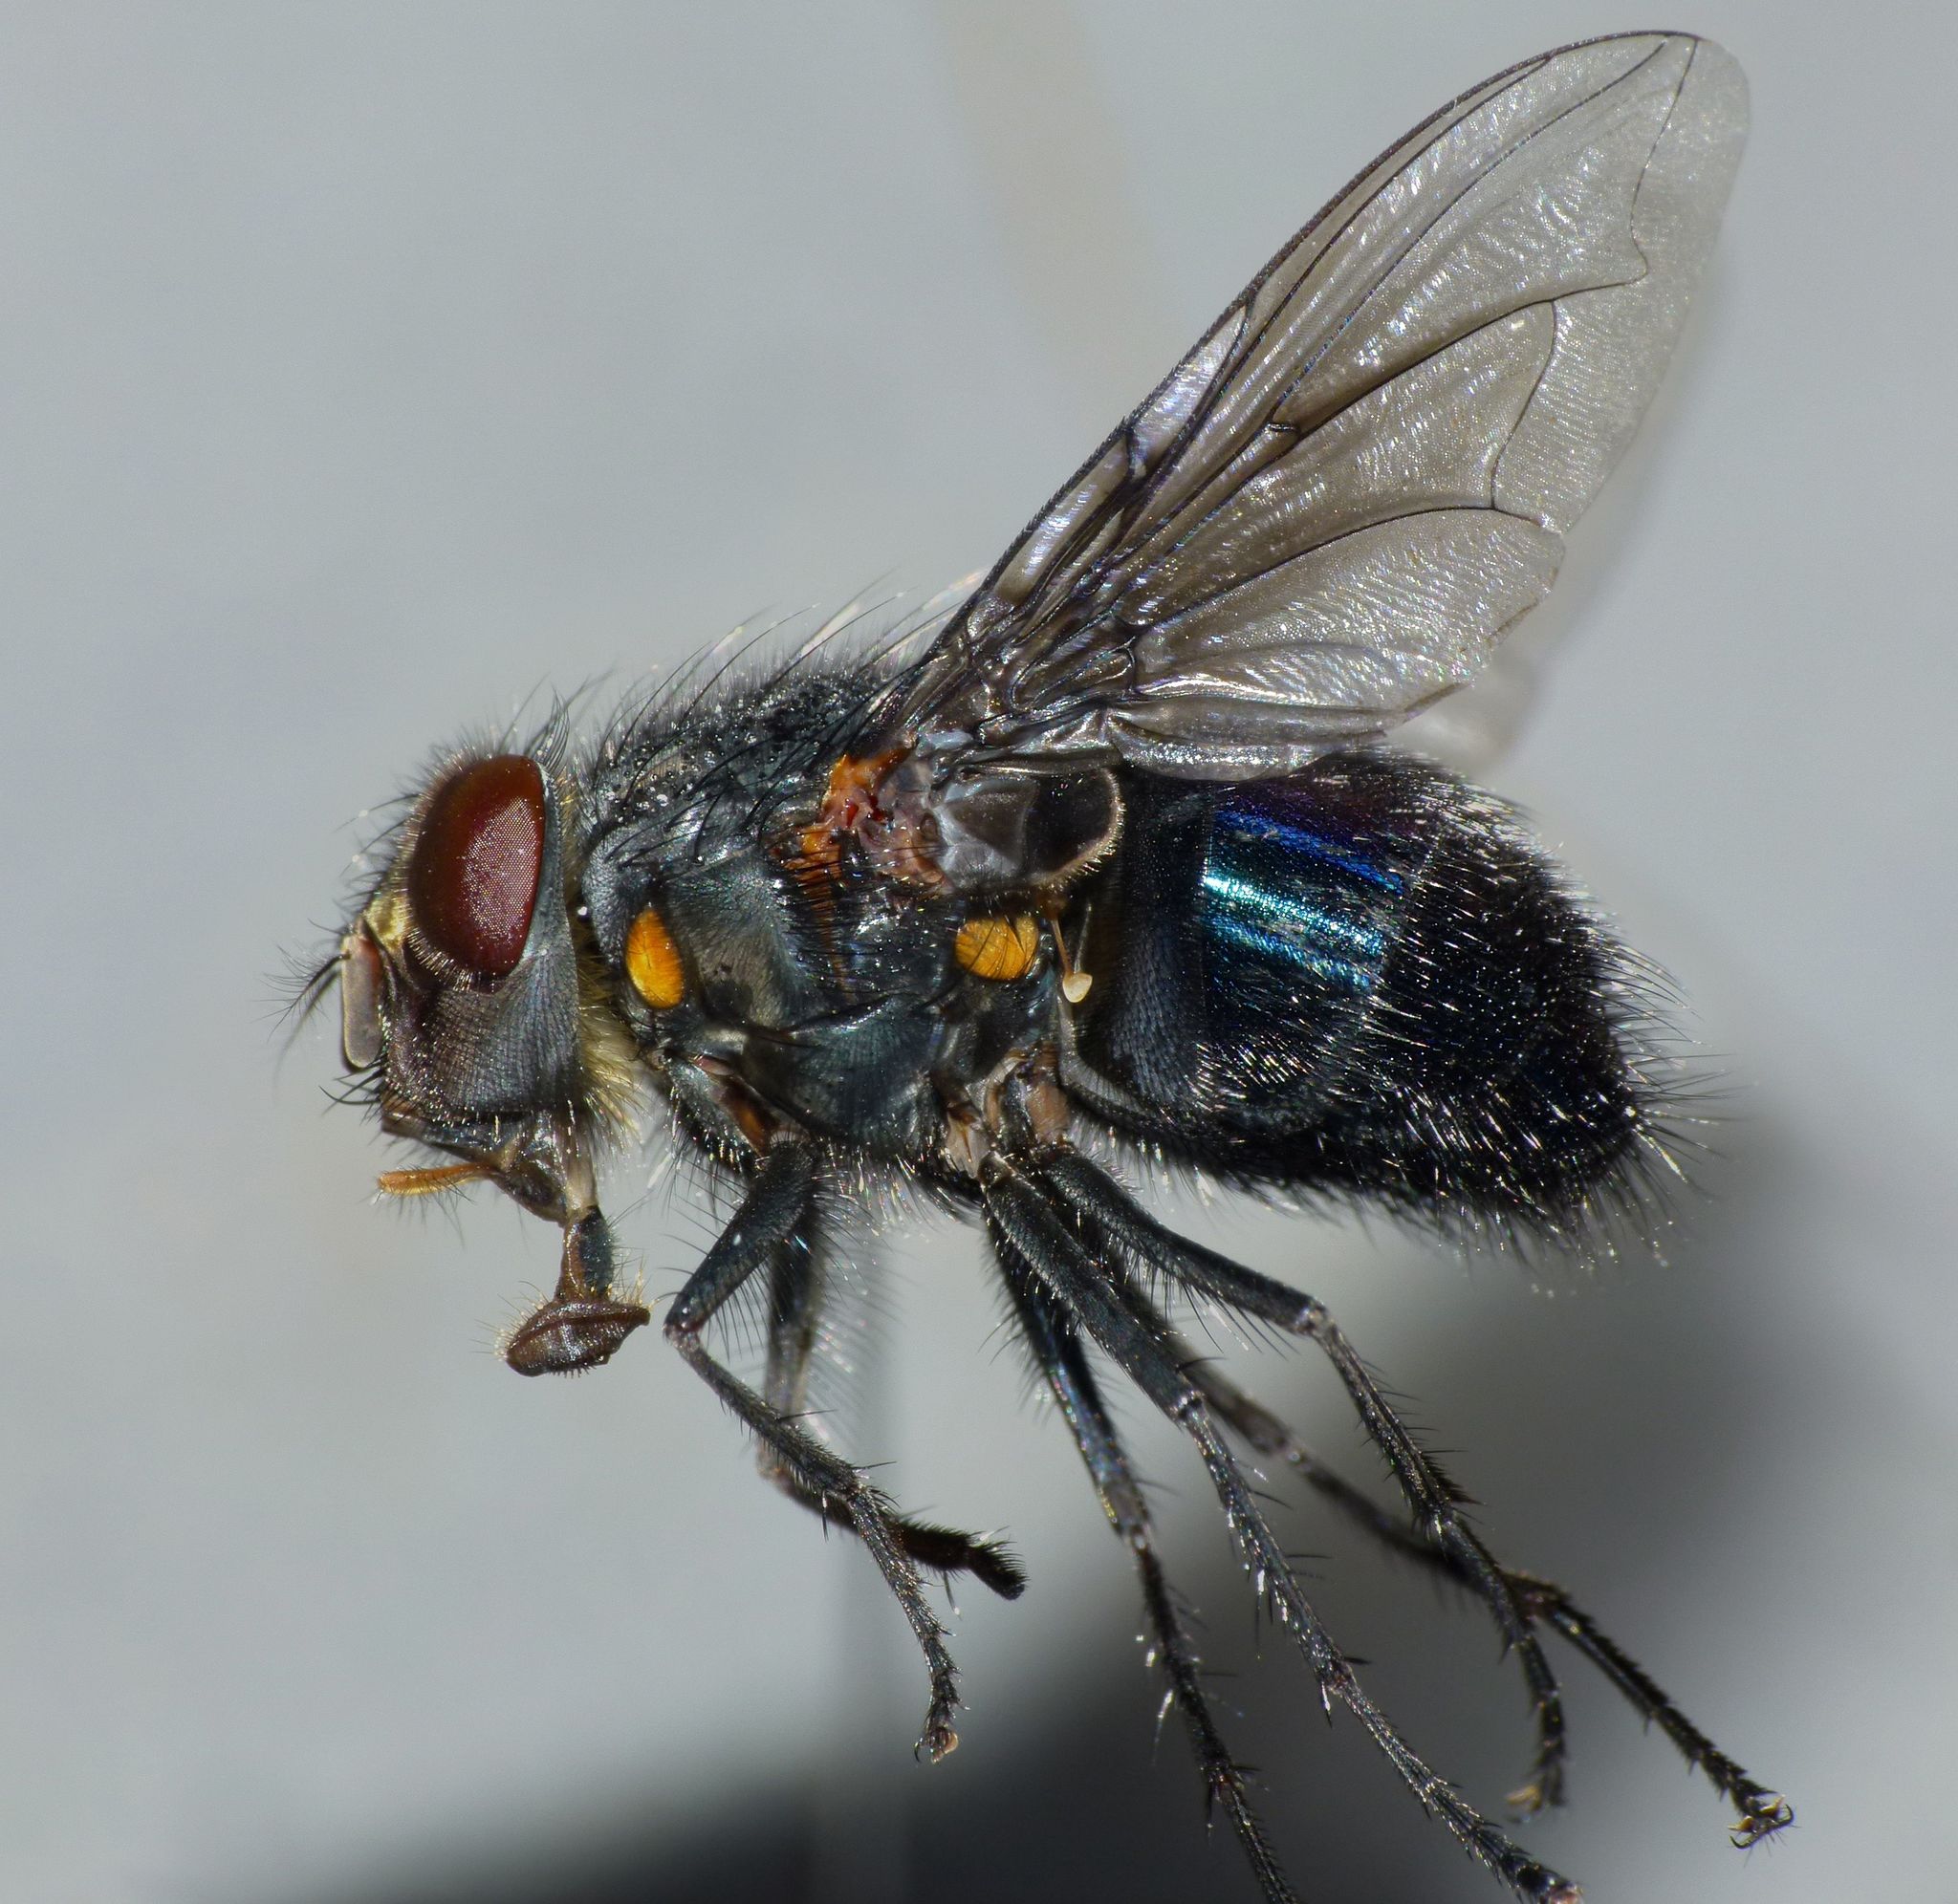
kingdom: Animalia
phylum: Arthropoda
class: Insecta
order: Diptera
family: Calliphoridae
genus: Calliphora
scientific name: Calliphora quadrimaculata
